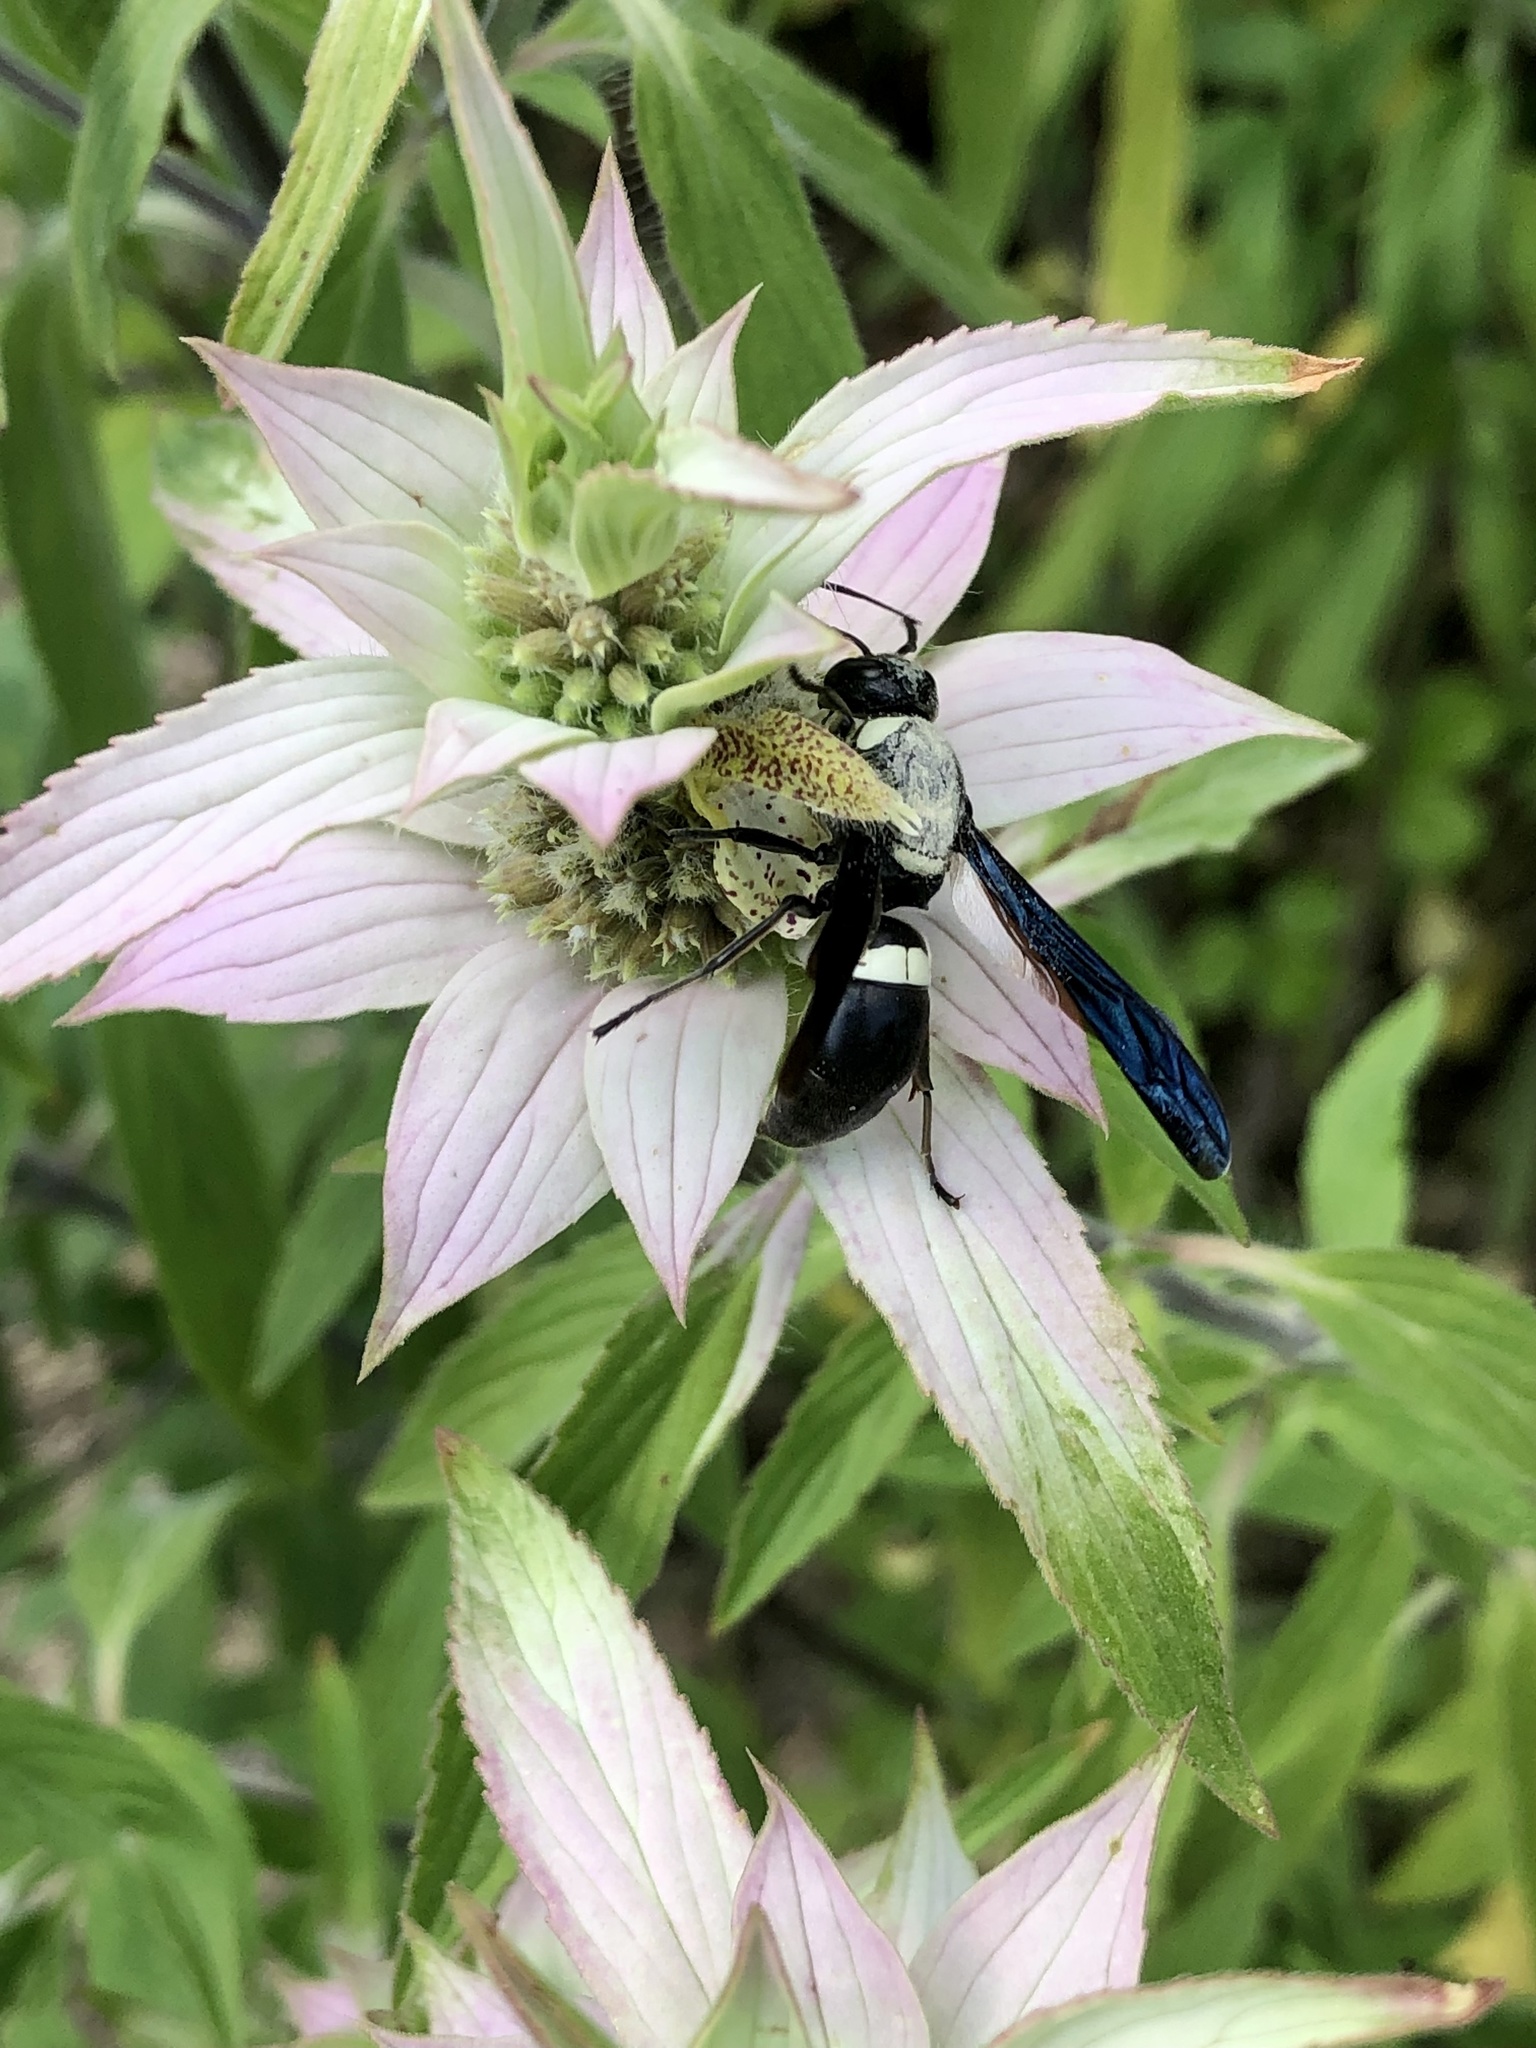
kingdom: Animalia
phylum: Arthropoda
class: Insecta
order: Hymenoptera
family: Eumenidae
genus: Monobia
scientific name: Monobia quadridens
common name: Four-toothed mason wasp
